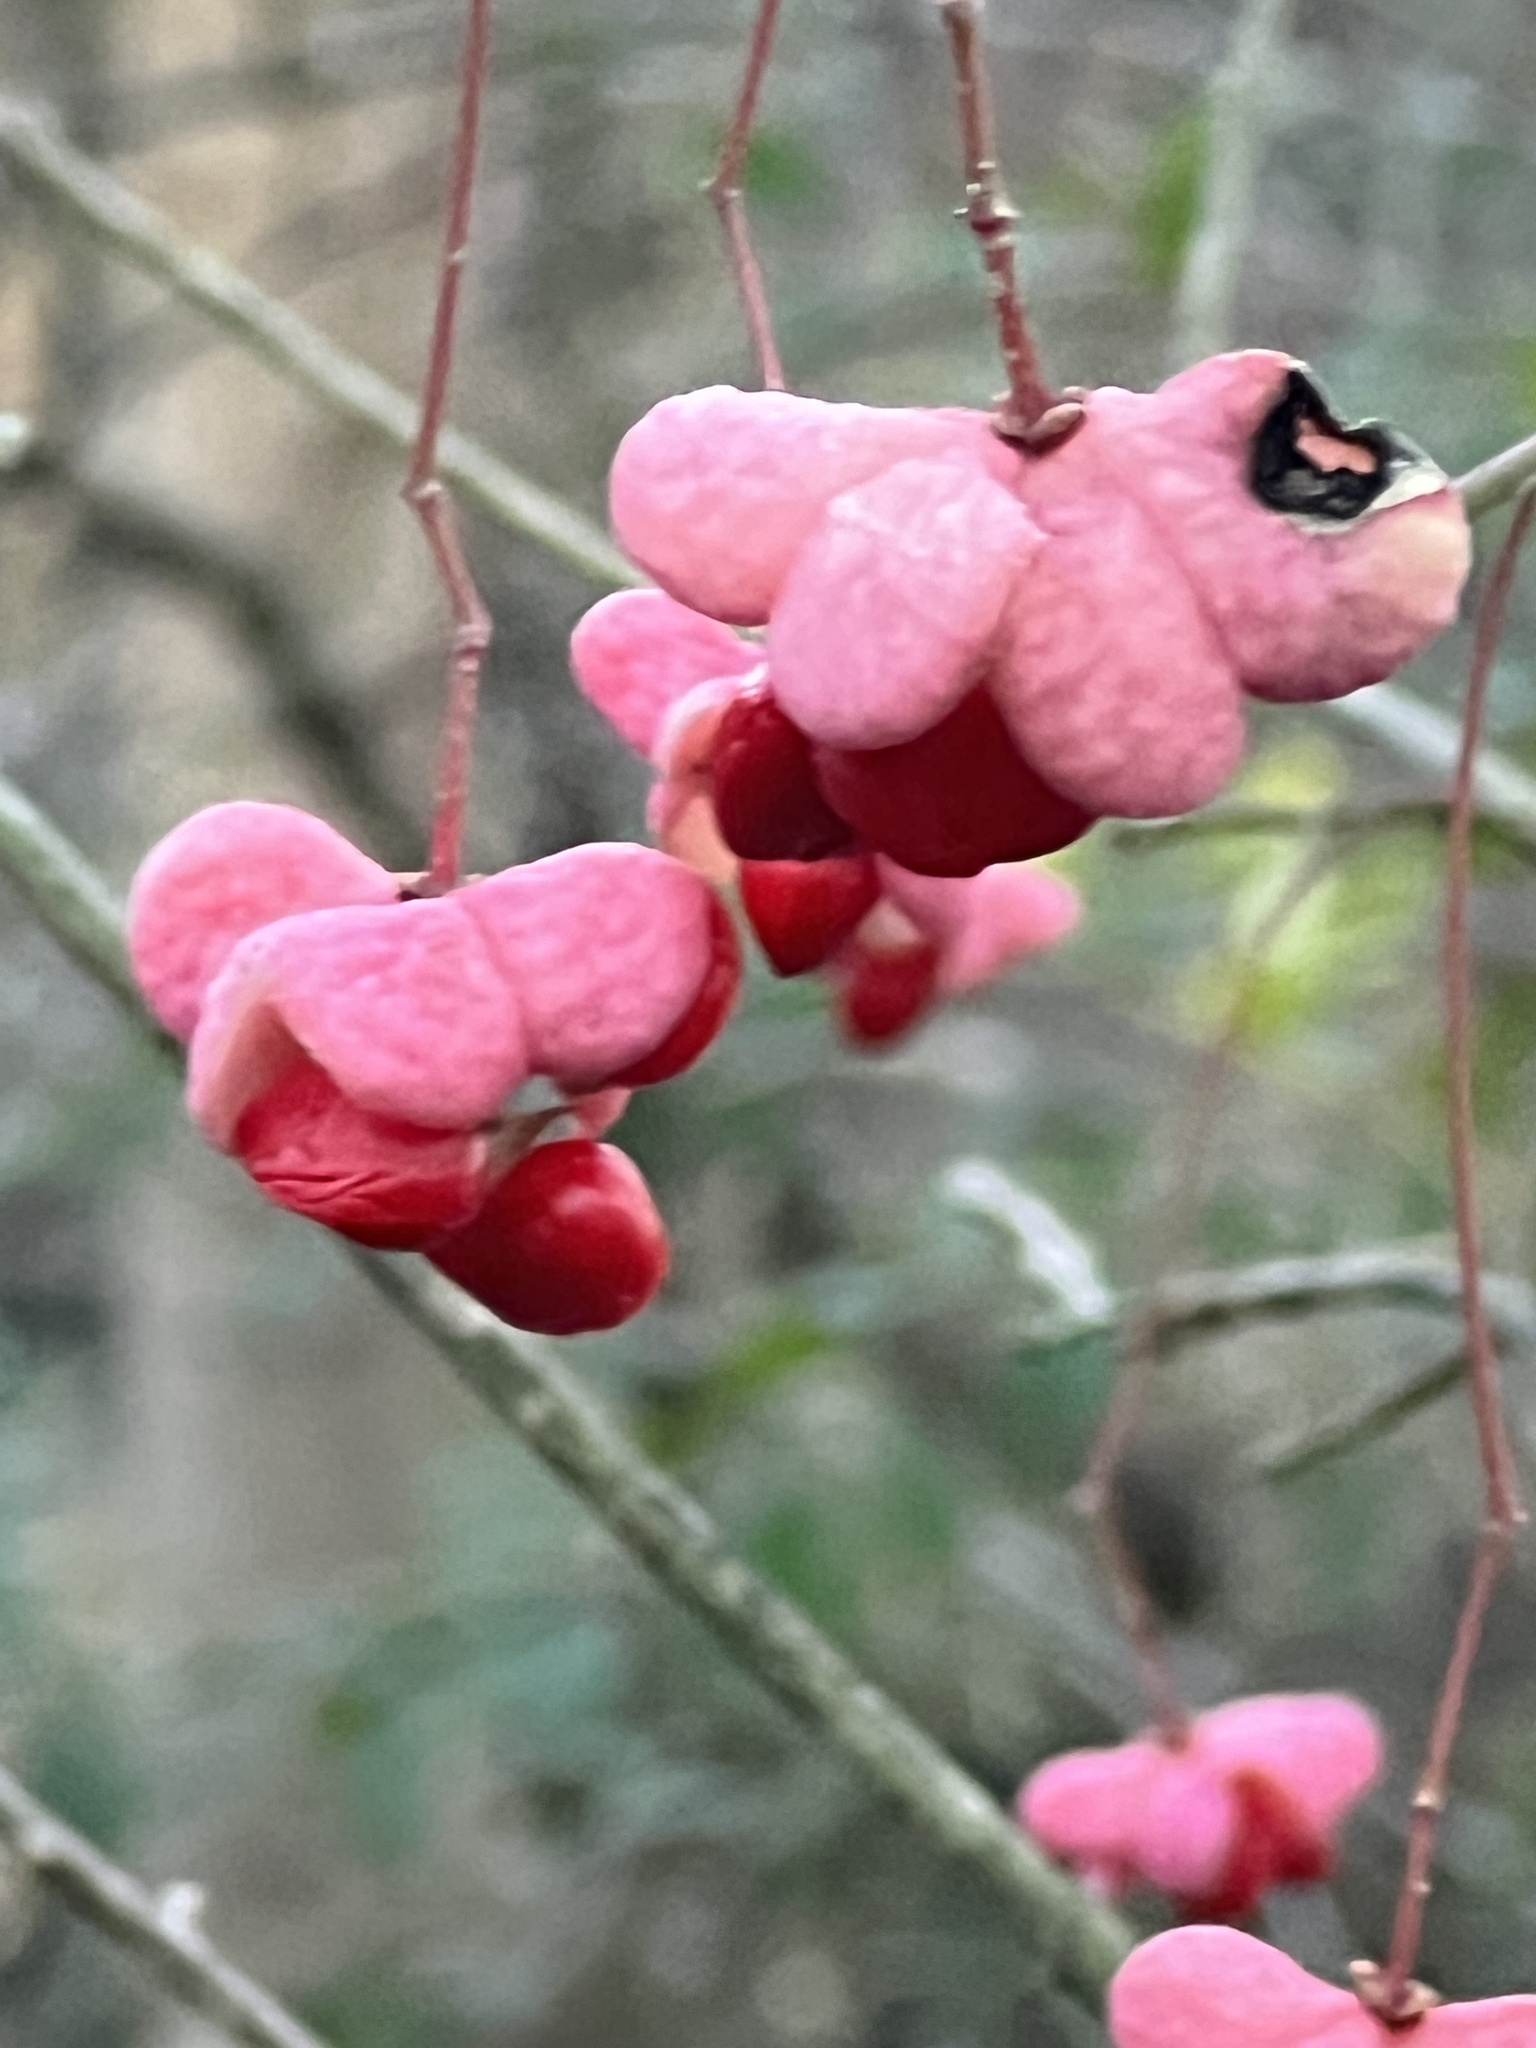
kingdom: Plantae
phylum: Tracheophyta
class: Magnoliopsida
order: Celastrales
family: Celastraceae
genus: Euonymus
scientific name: Euonymus atropurpureus
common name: Eastern wahoo
